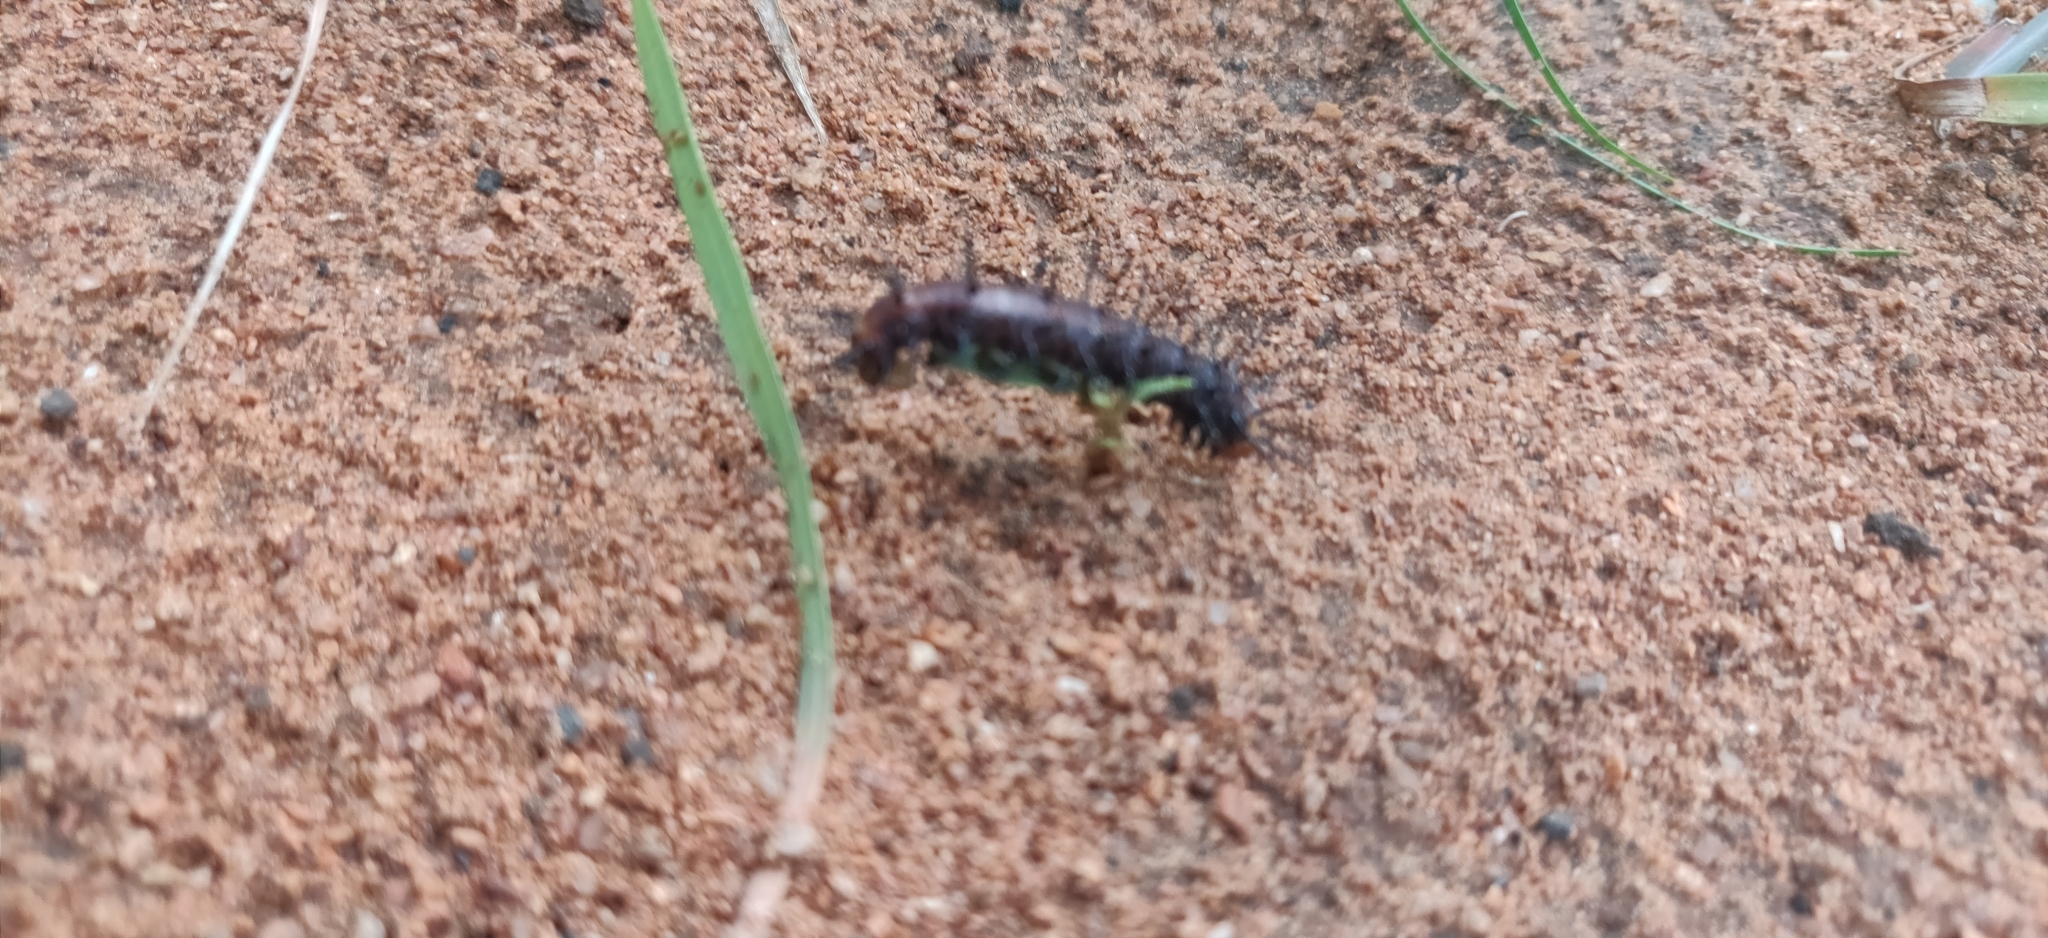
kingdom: Animalia
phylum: Arthropoda
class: Insecta
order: Lepidoptera
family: Nymphalidae
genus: Acraea
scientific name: Acraea terpsicore
